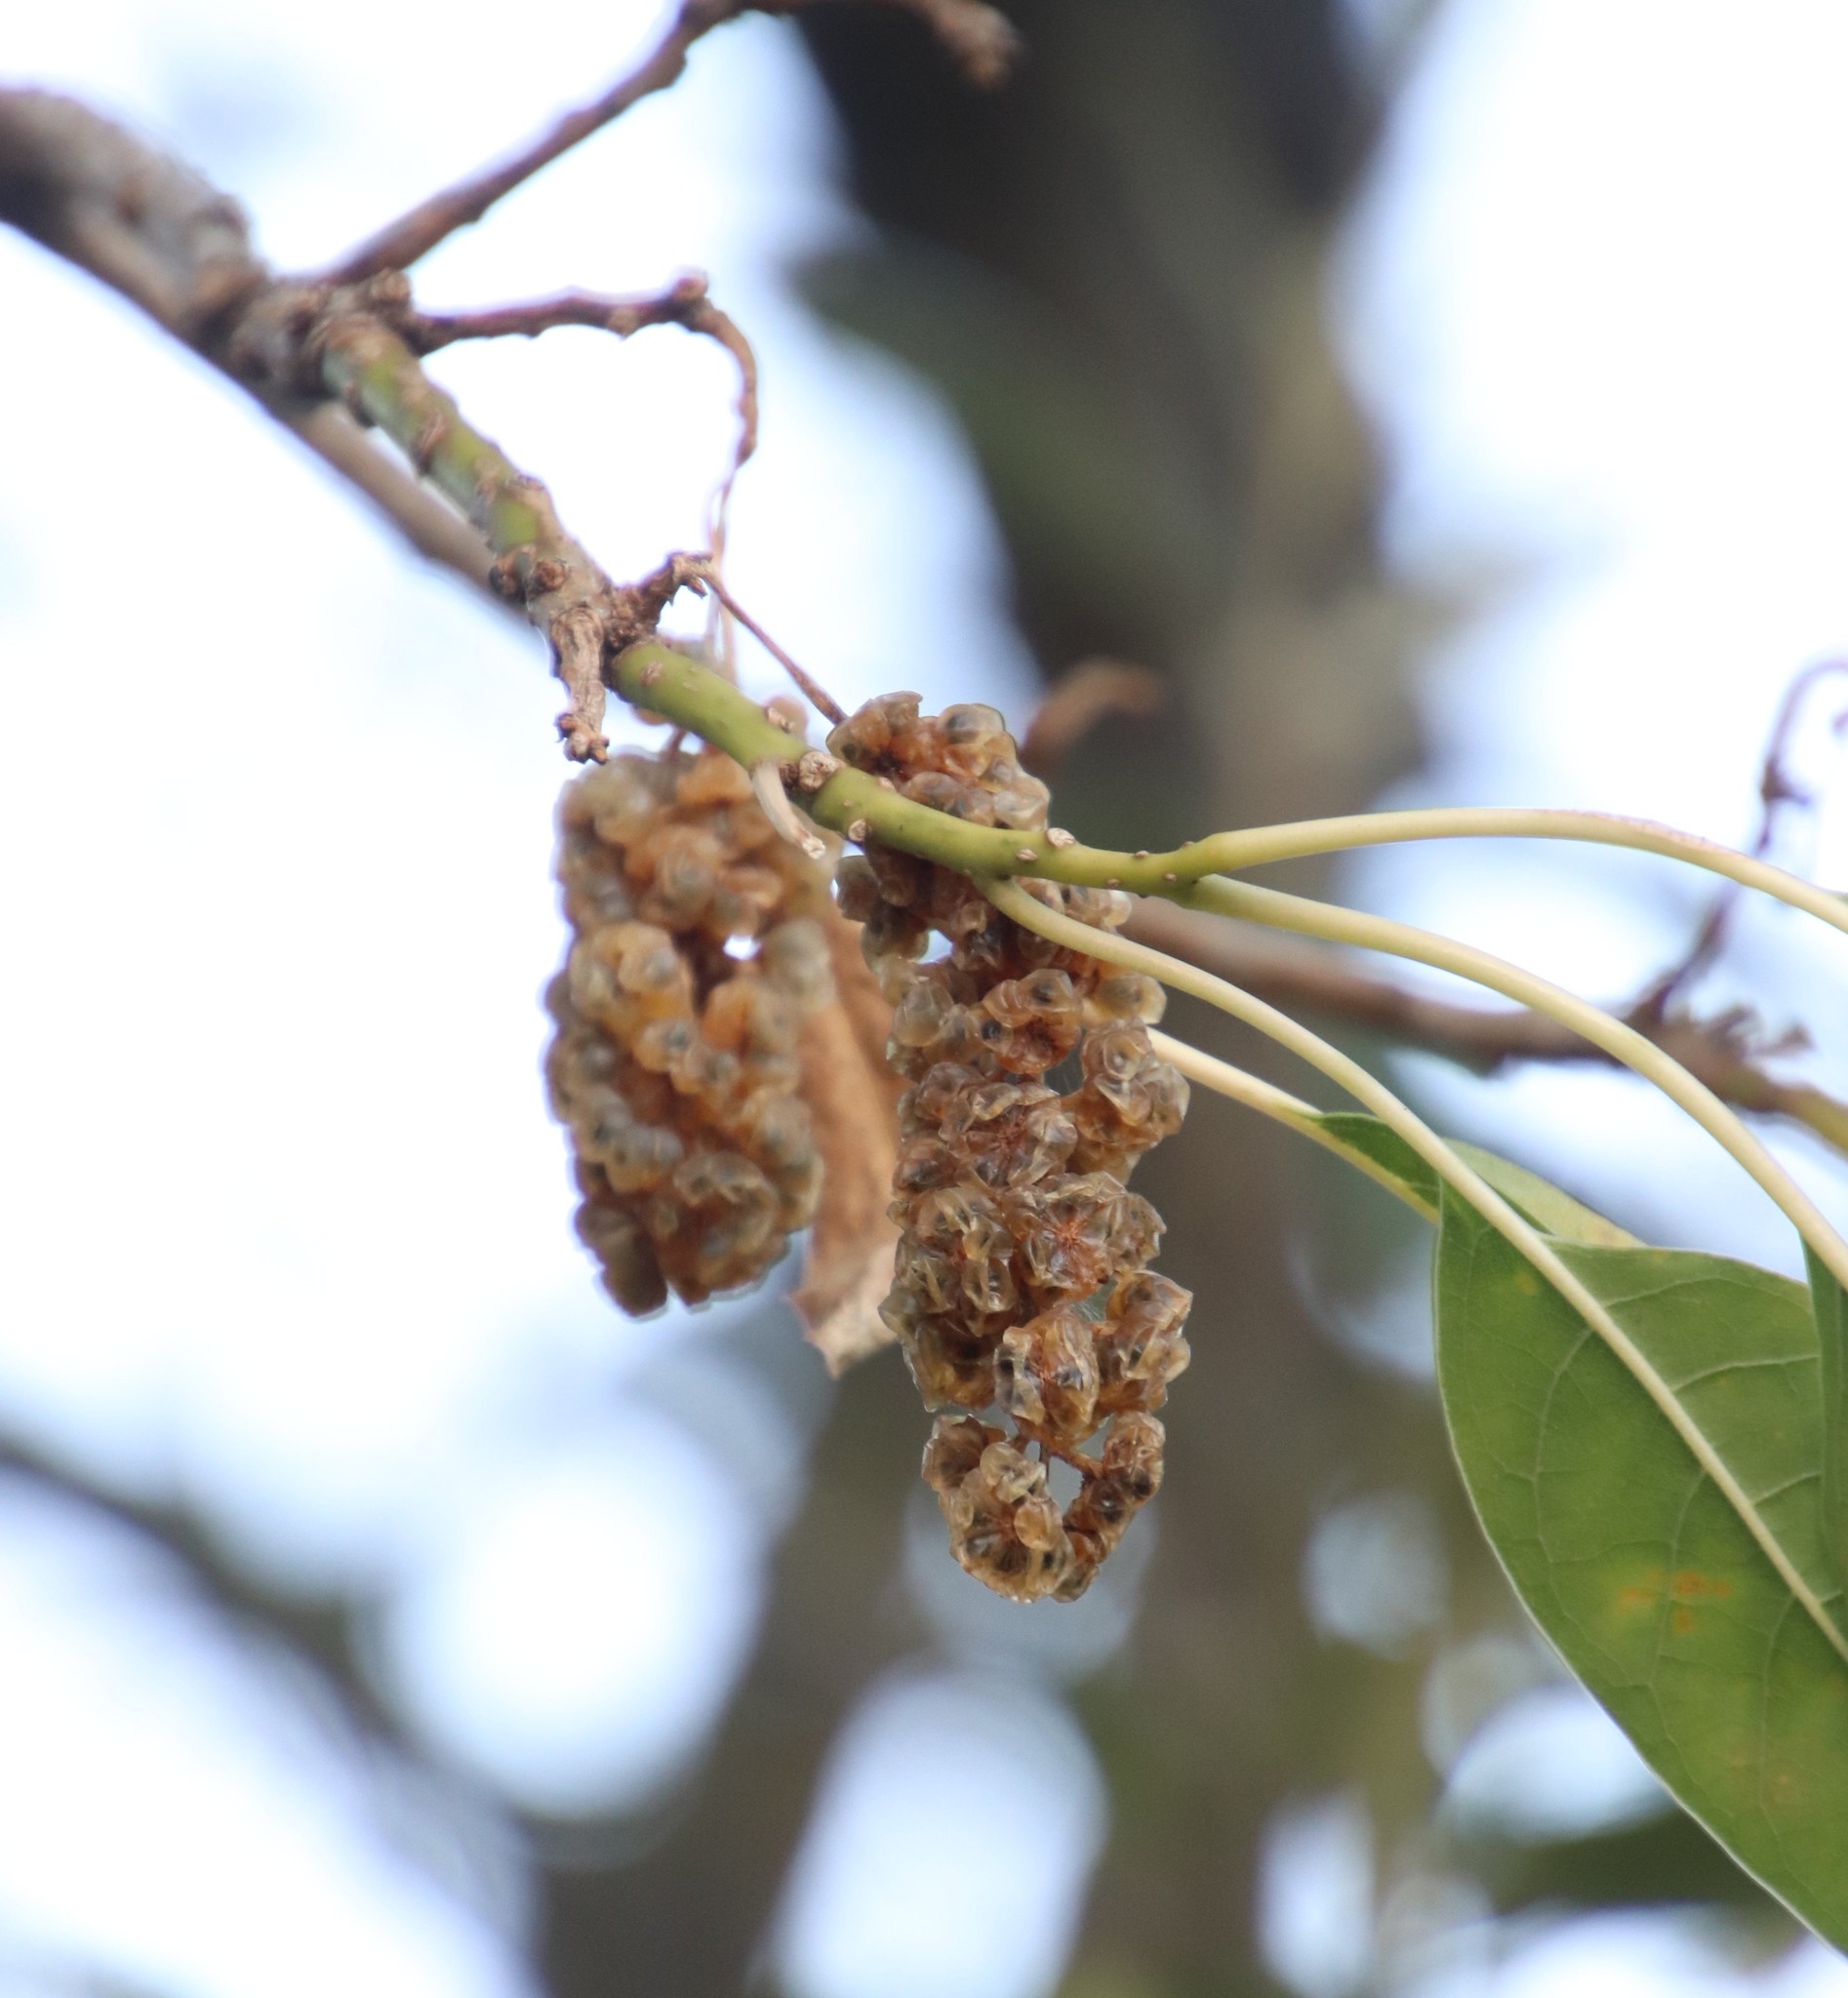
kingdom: Plantae
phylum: Tracheophyta
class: Magnoliopsida
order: Caryophyllales
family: Phytolaccaceae
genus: Phytolacca
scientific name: Phytolacca dioica
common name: Pokeweed
